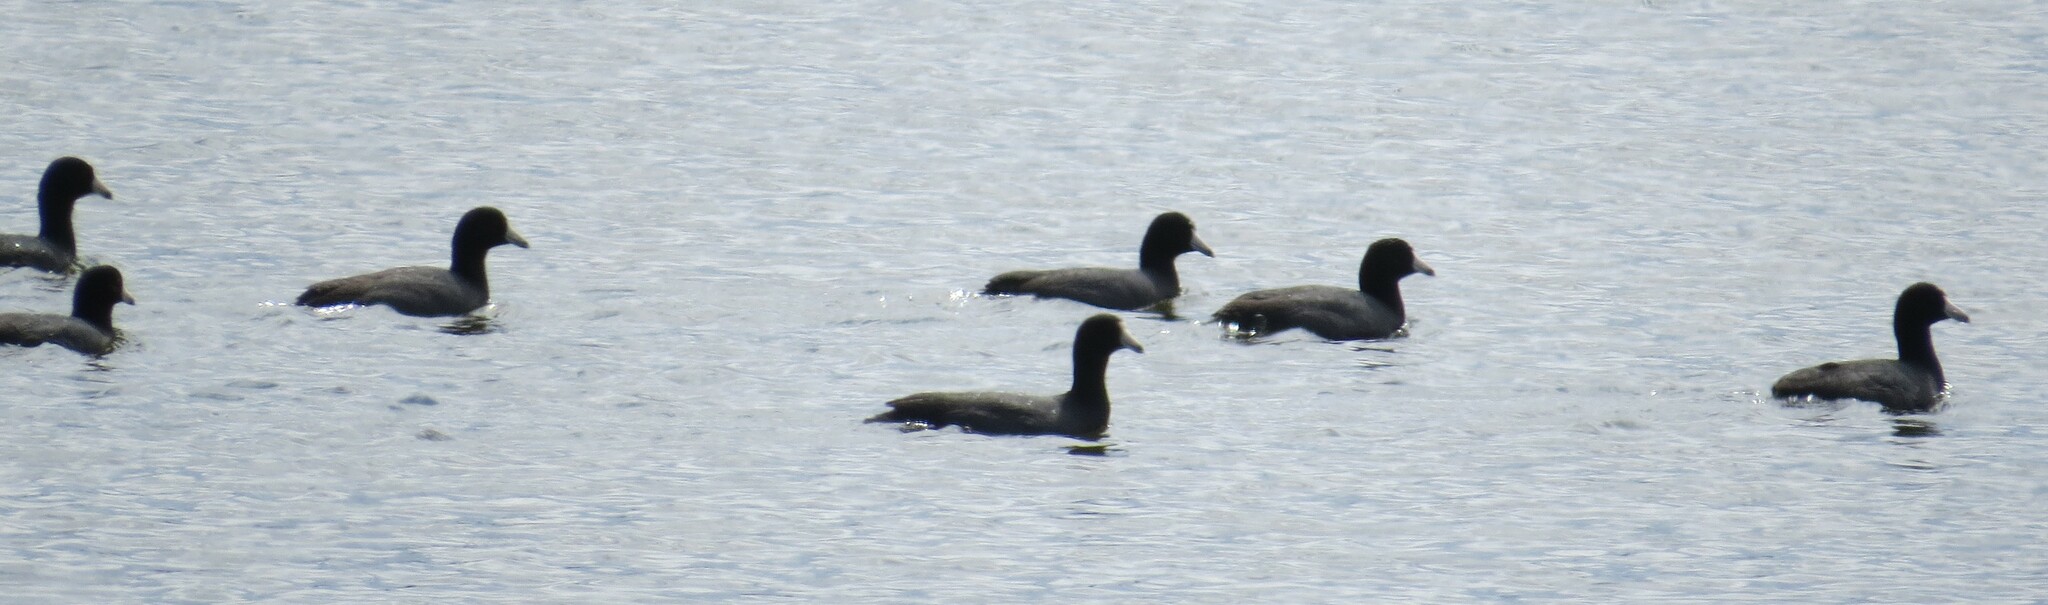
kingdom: Animalia
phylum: Chordata
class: Aves
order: Gruiformes
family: Rallidae
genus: Fulica
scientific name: Fulica americana
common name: American coot
